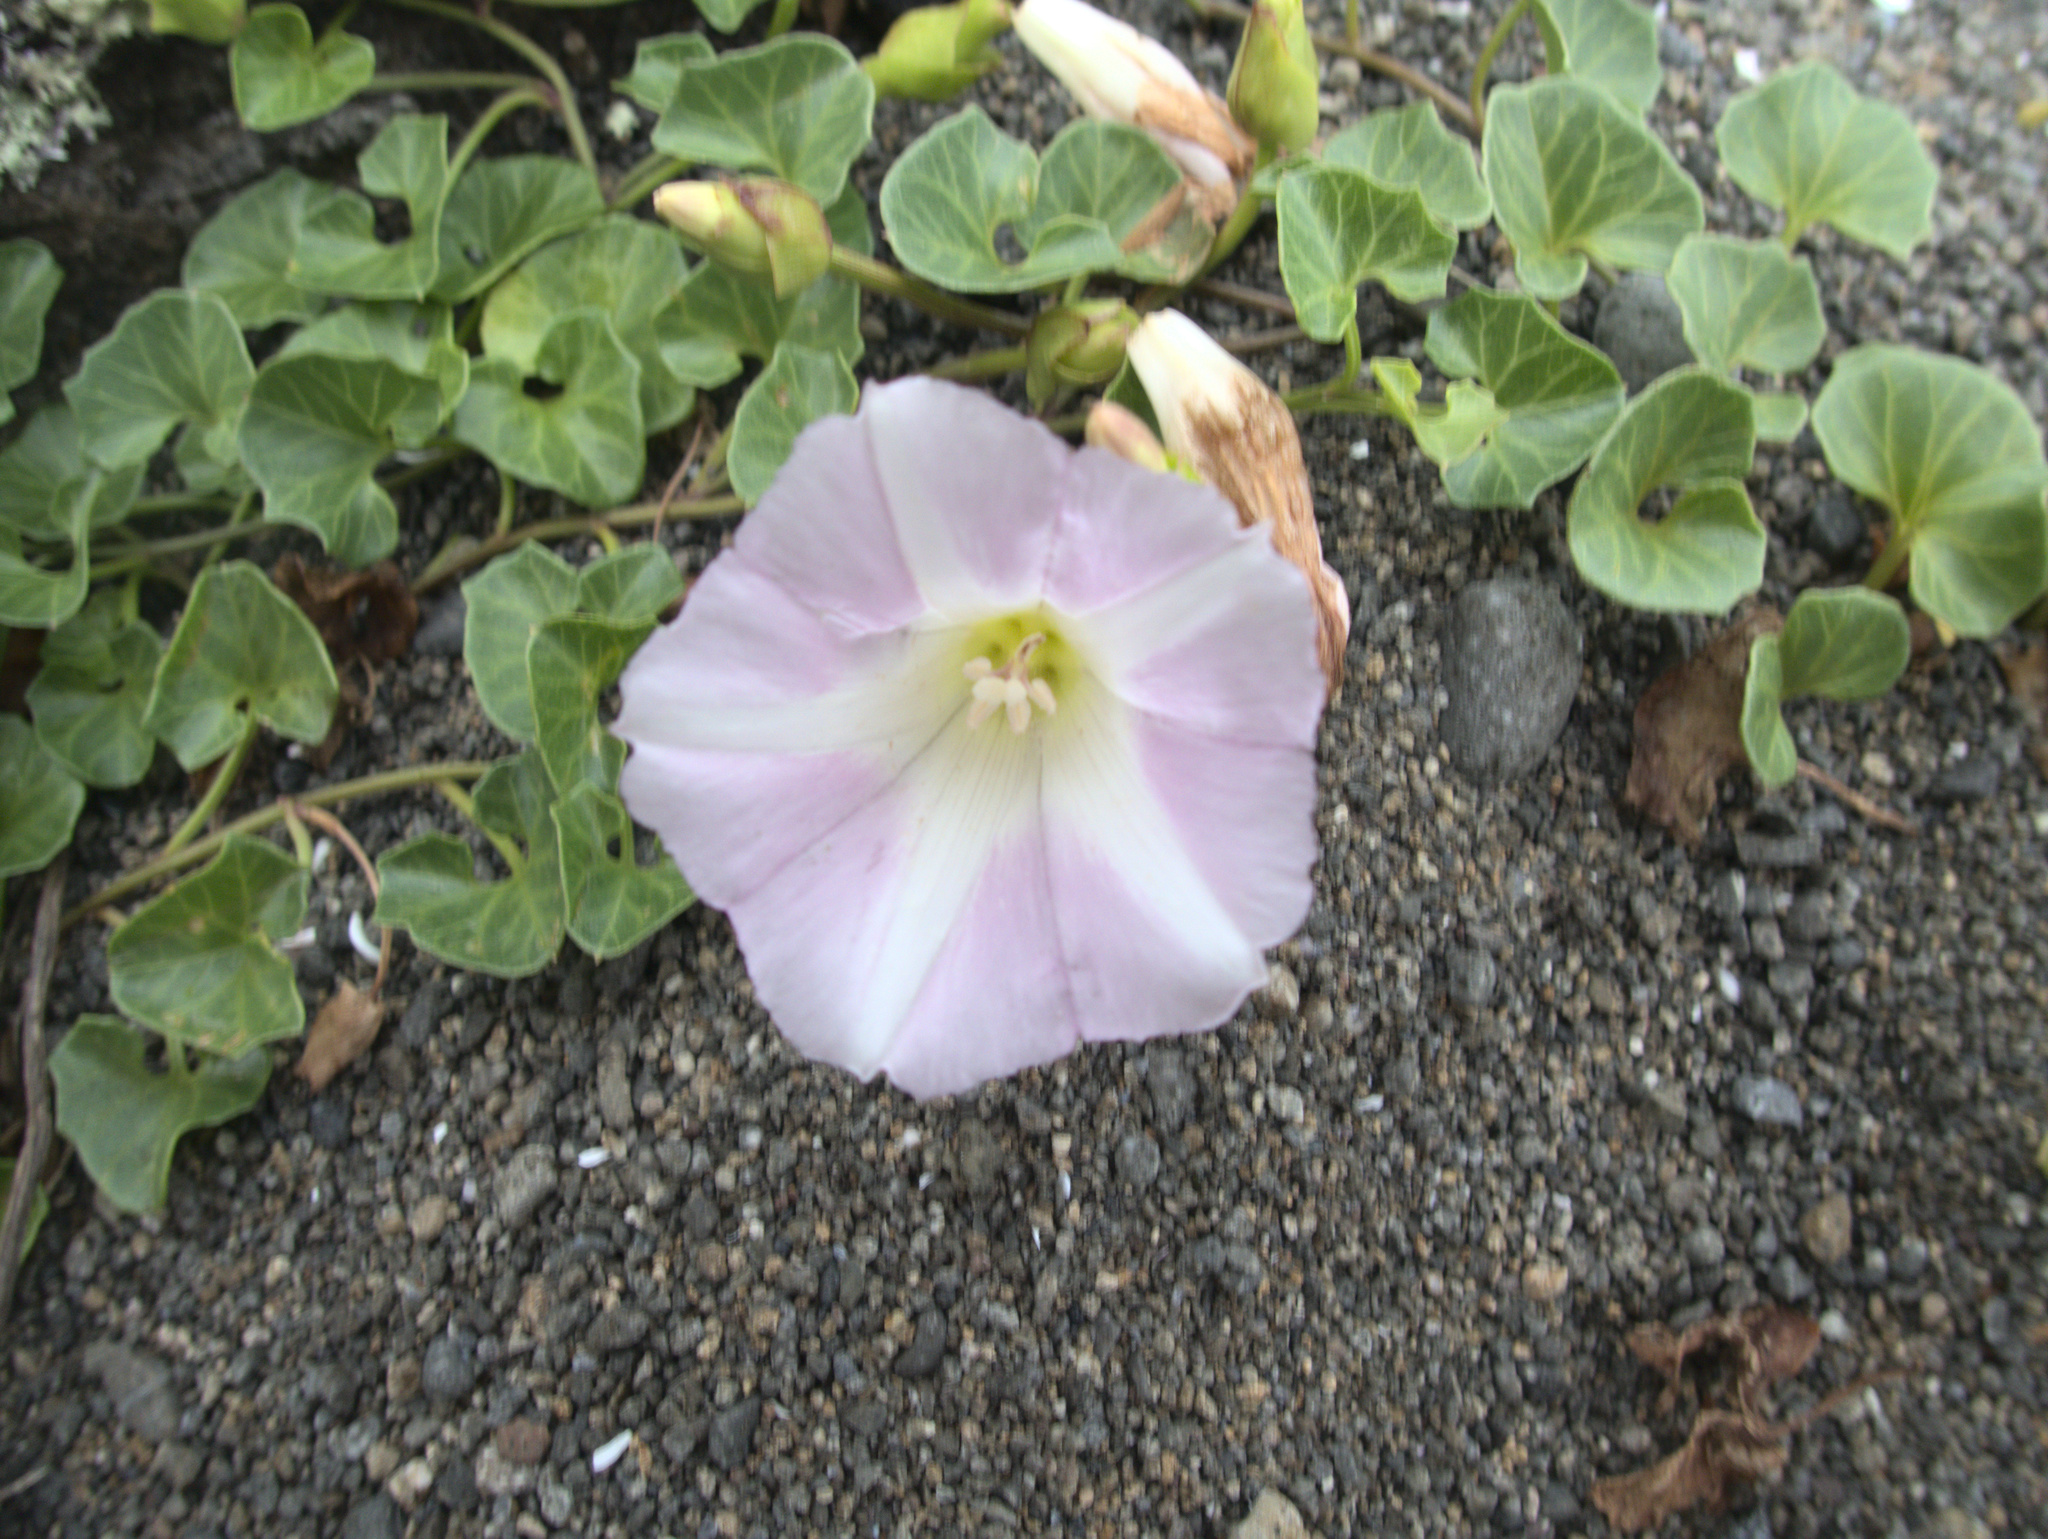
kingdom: Plantae
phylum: Tracheophyta
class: Magnoliopsida
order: Solanales
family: Convolvulaceae
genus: Calystegia
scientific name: Calystegia soldanella
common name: Sea bindweed
